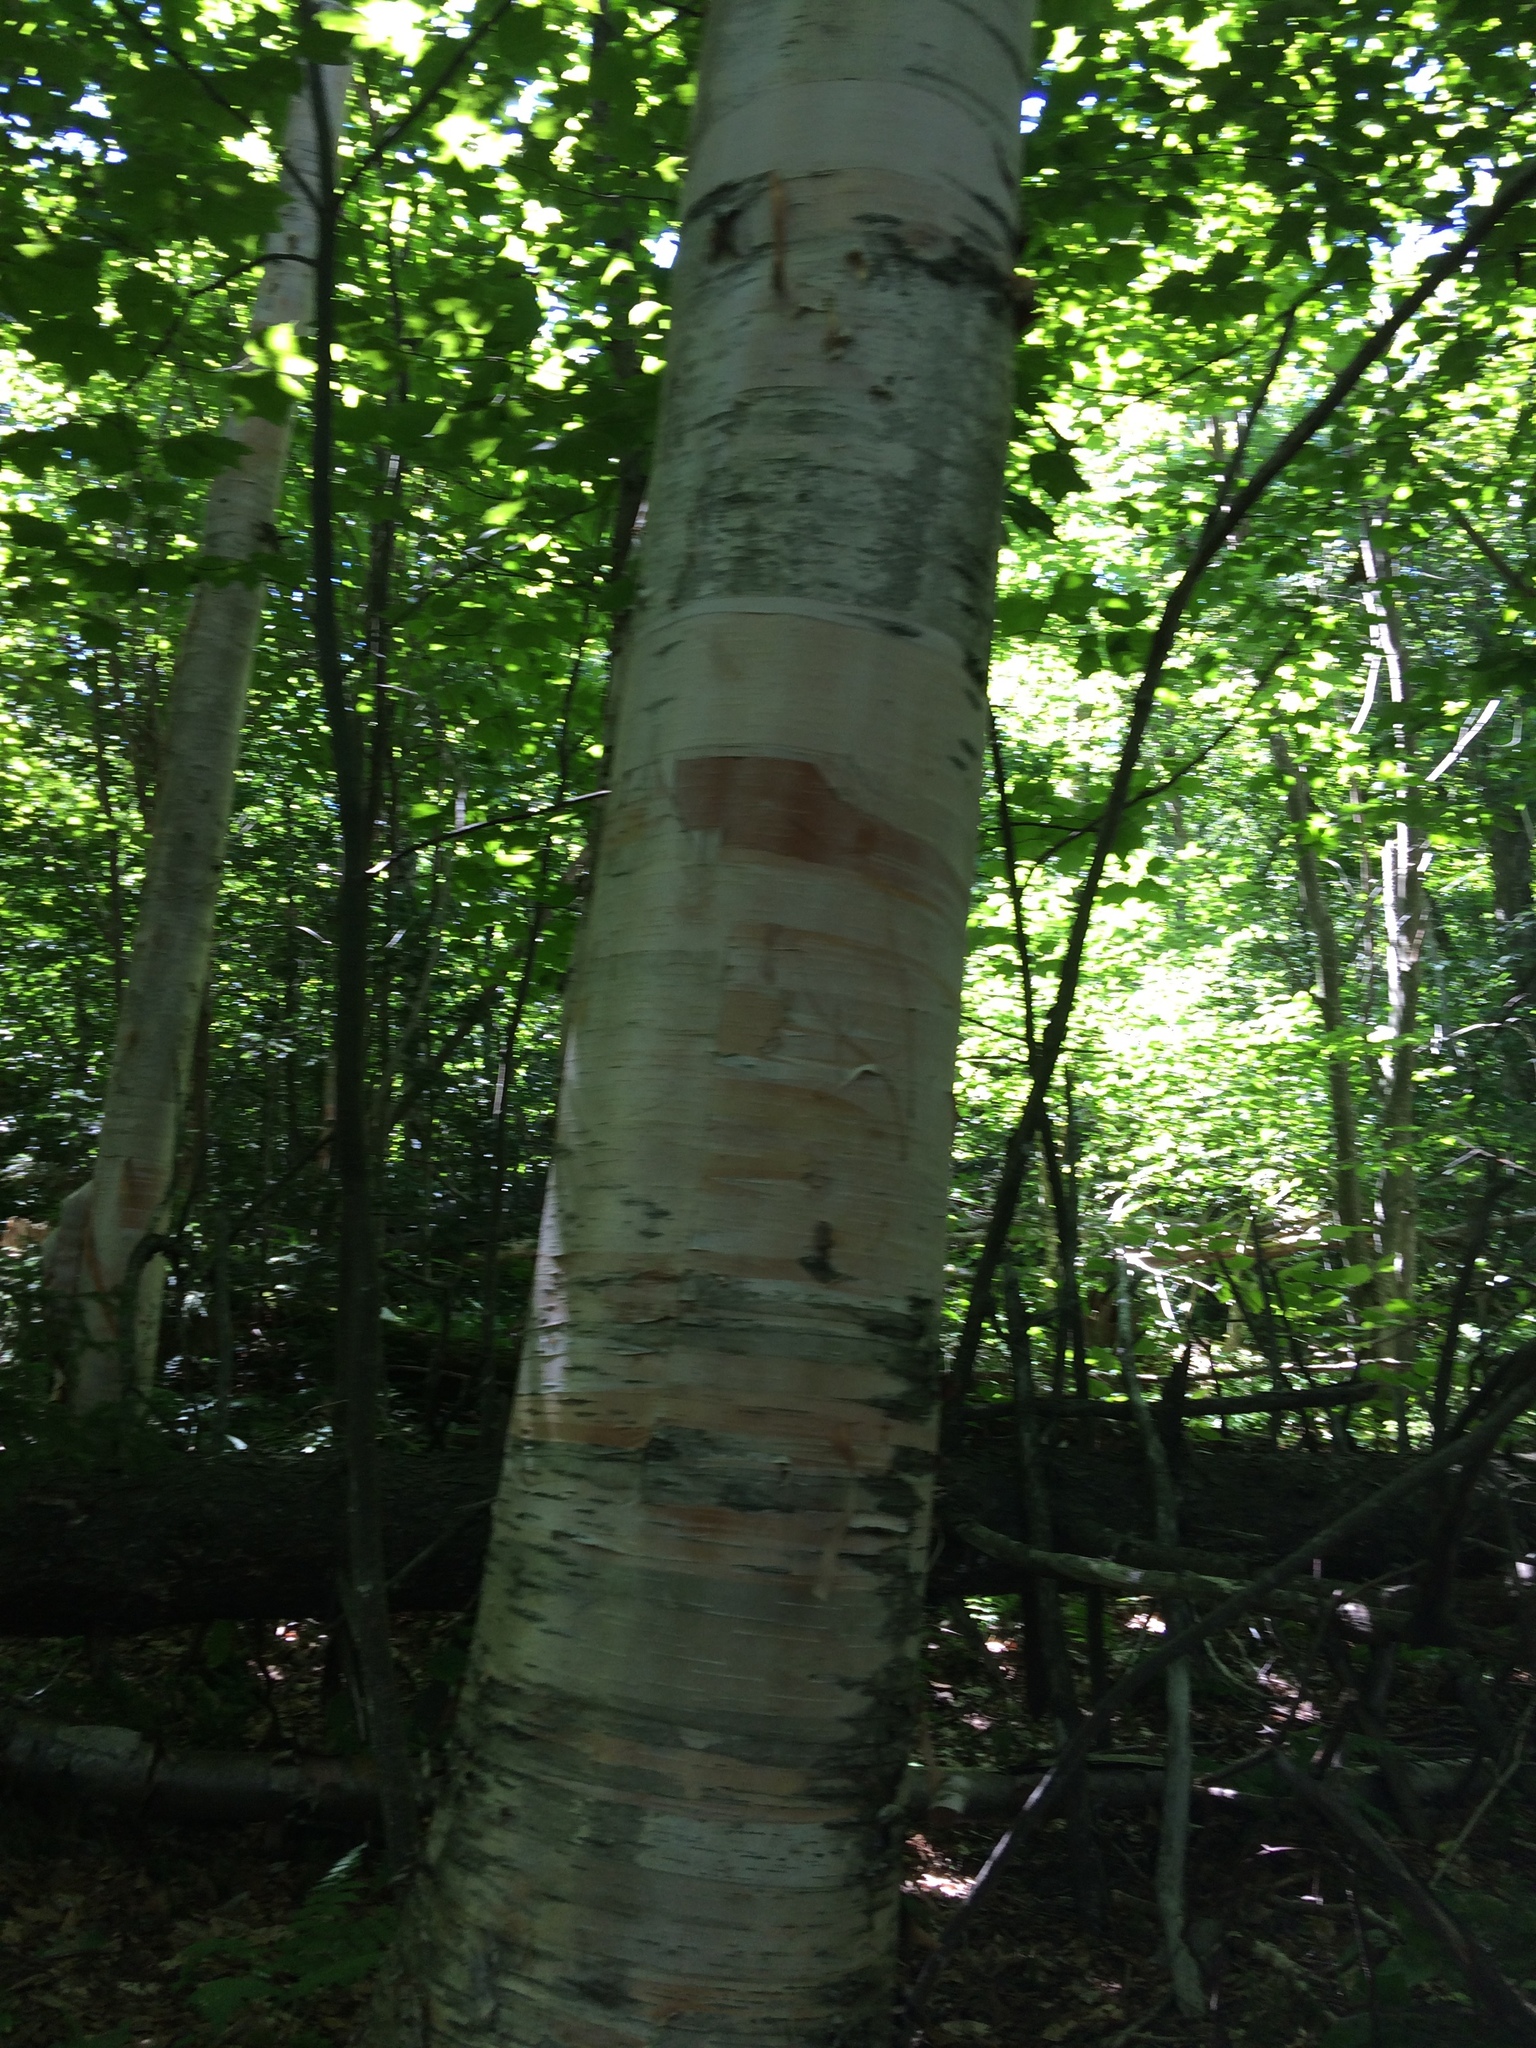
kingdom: Plantae
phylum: Tracheophyta
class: Magnoliopsida
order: Fagales
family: Betulaceae
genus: Betula
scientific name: Betula cordifolia
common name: Mountain white birch
